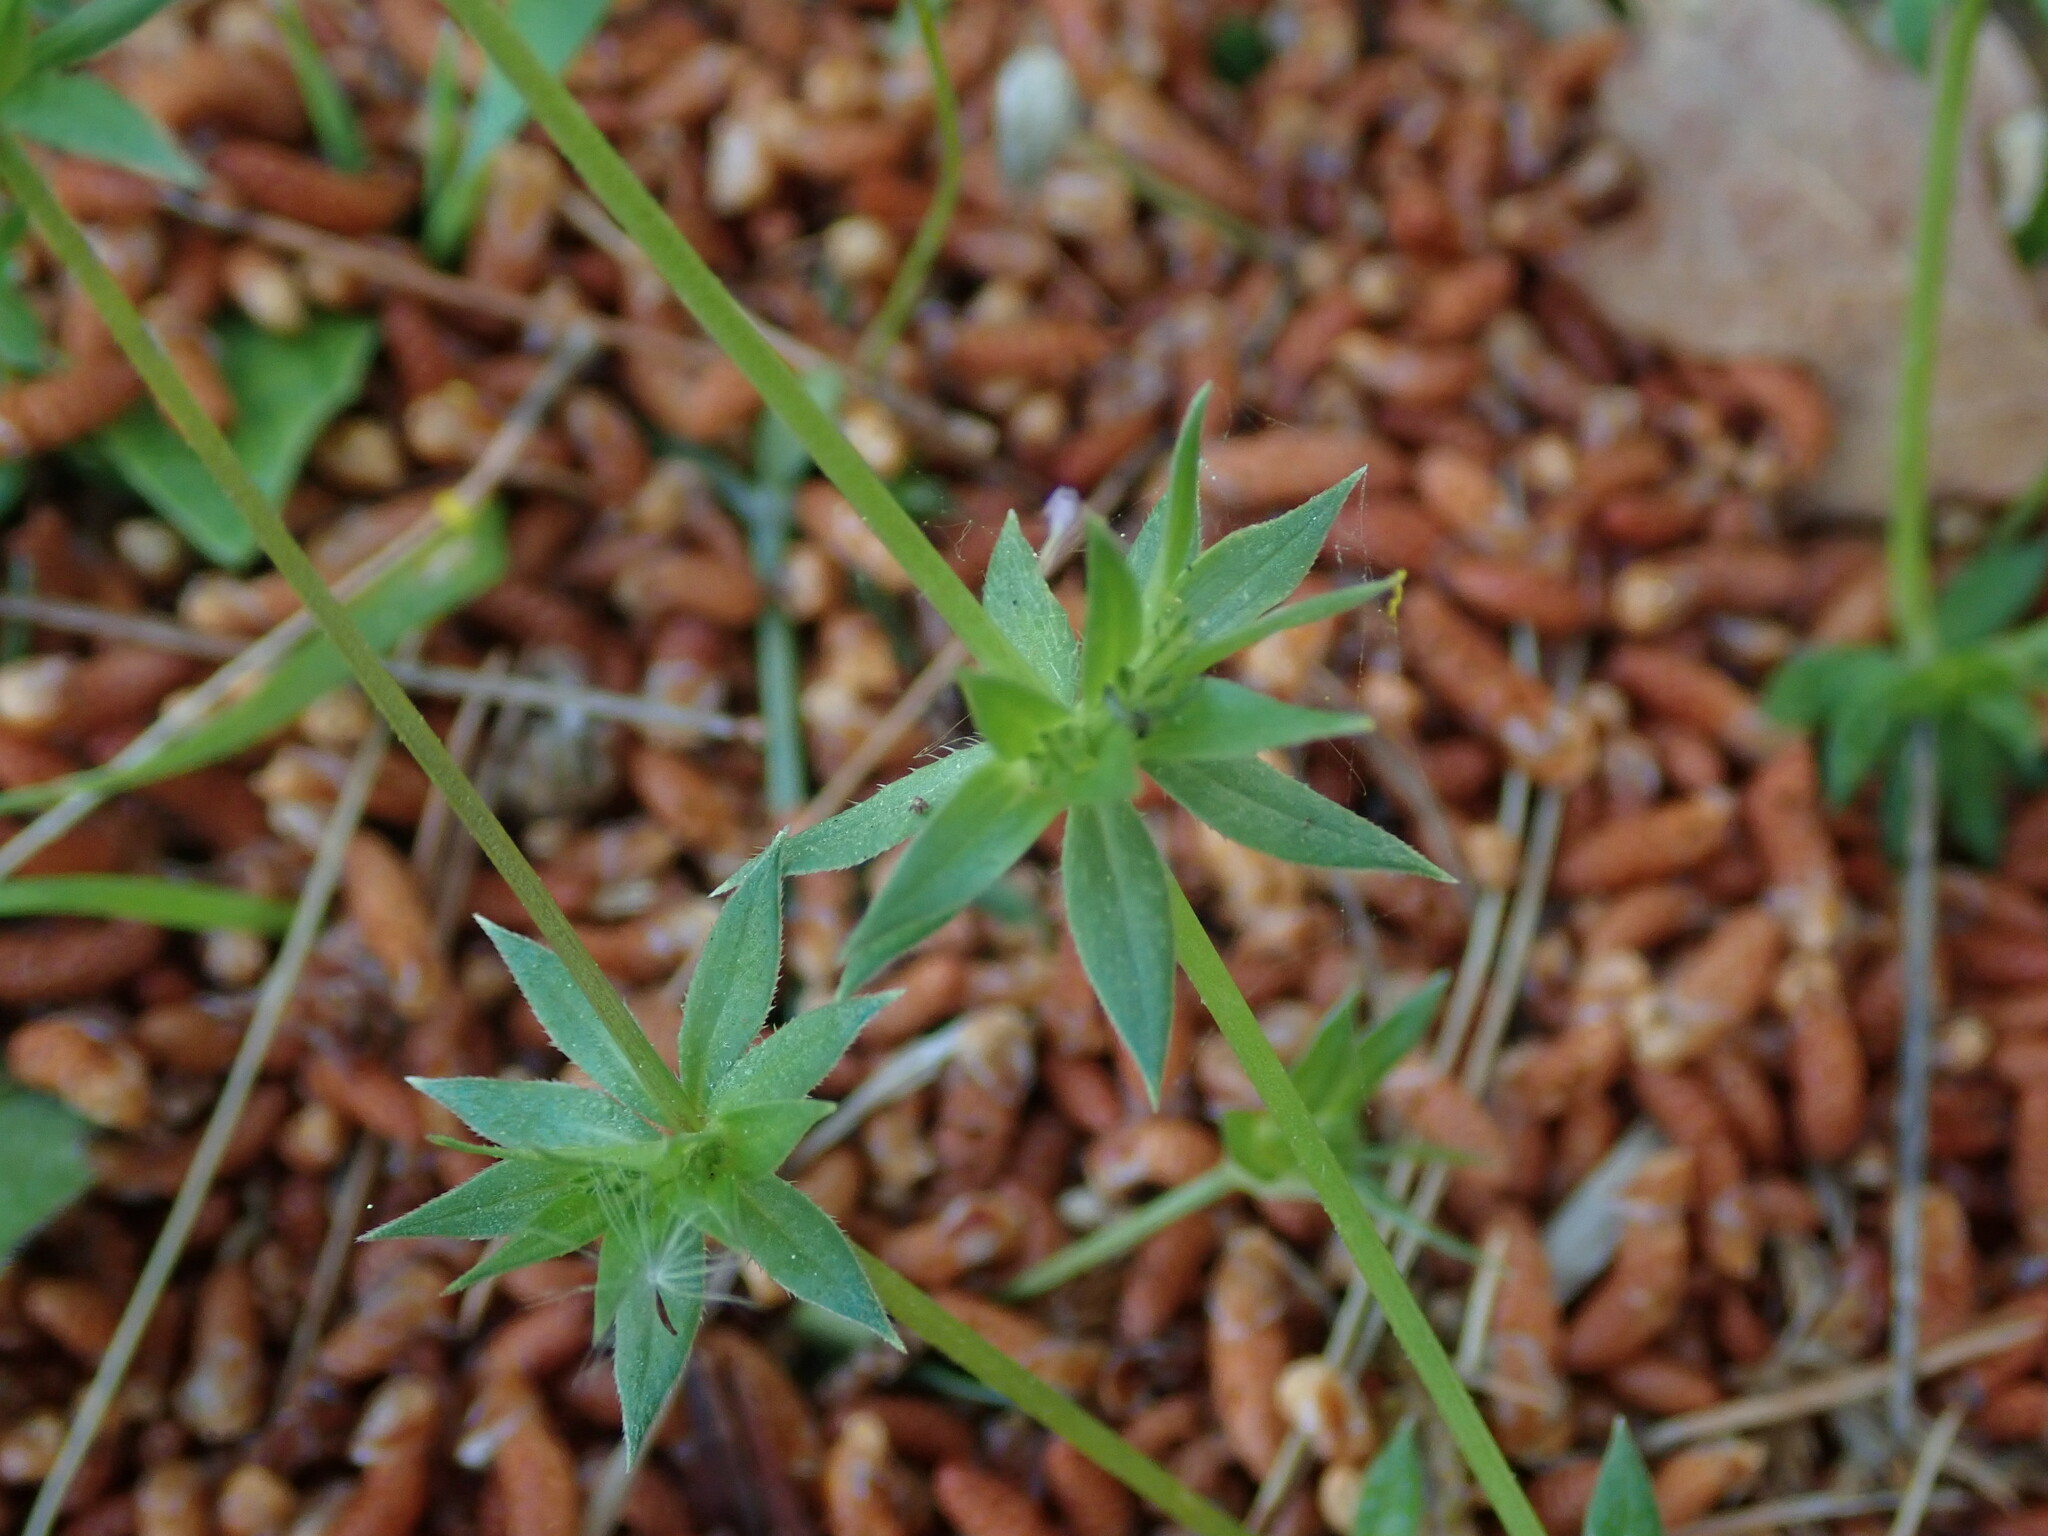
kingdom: Plantae
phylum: Tracheophyta
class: Magnoliopsida
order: Gentianales
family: Rubiaceae
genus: Sherardia
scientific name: Sherardia arvensis
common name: Field madder
